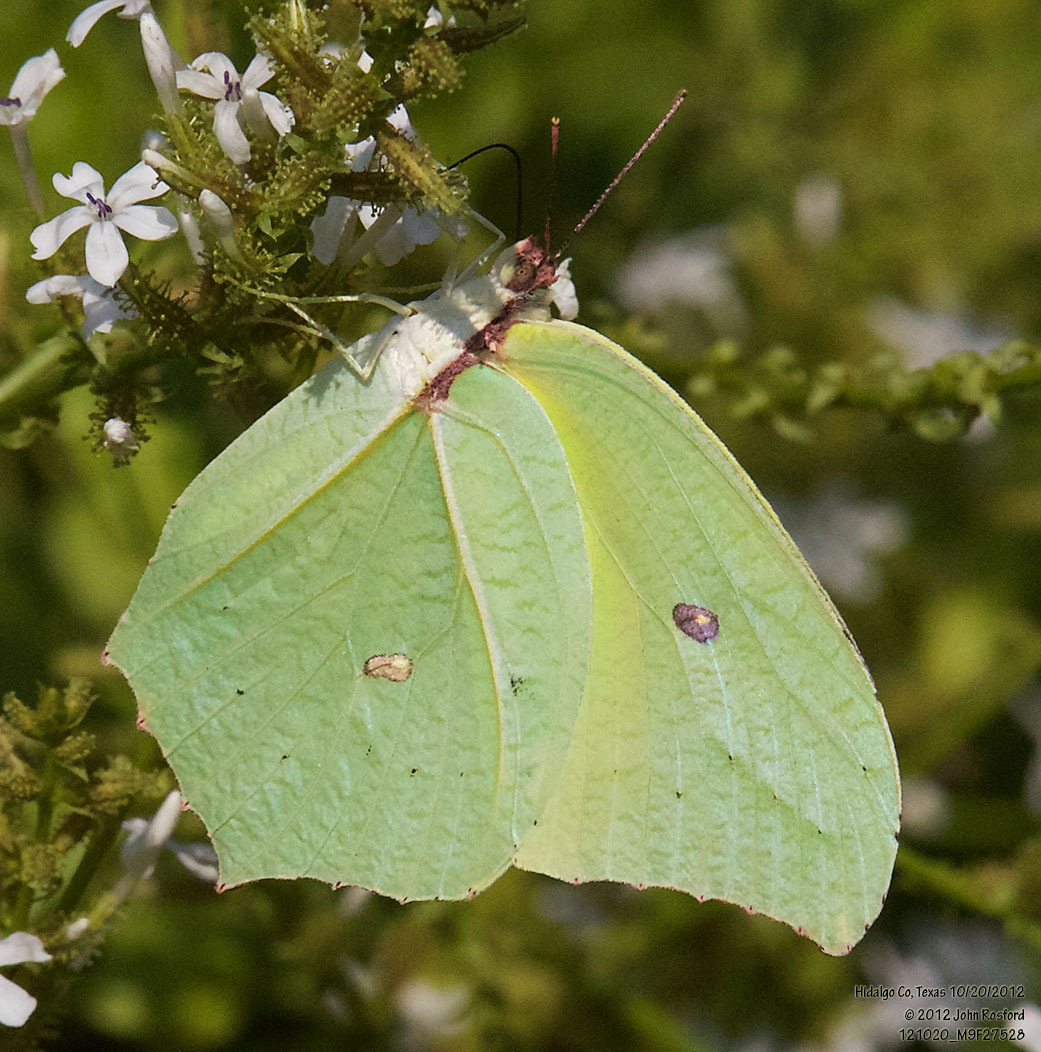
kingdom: Animalia
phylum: Arthropoda
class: Insecta
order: Lepidoptera
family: Pieridae
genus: Anteos
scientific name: Anteos maerula
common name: Angled sulphur
